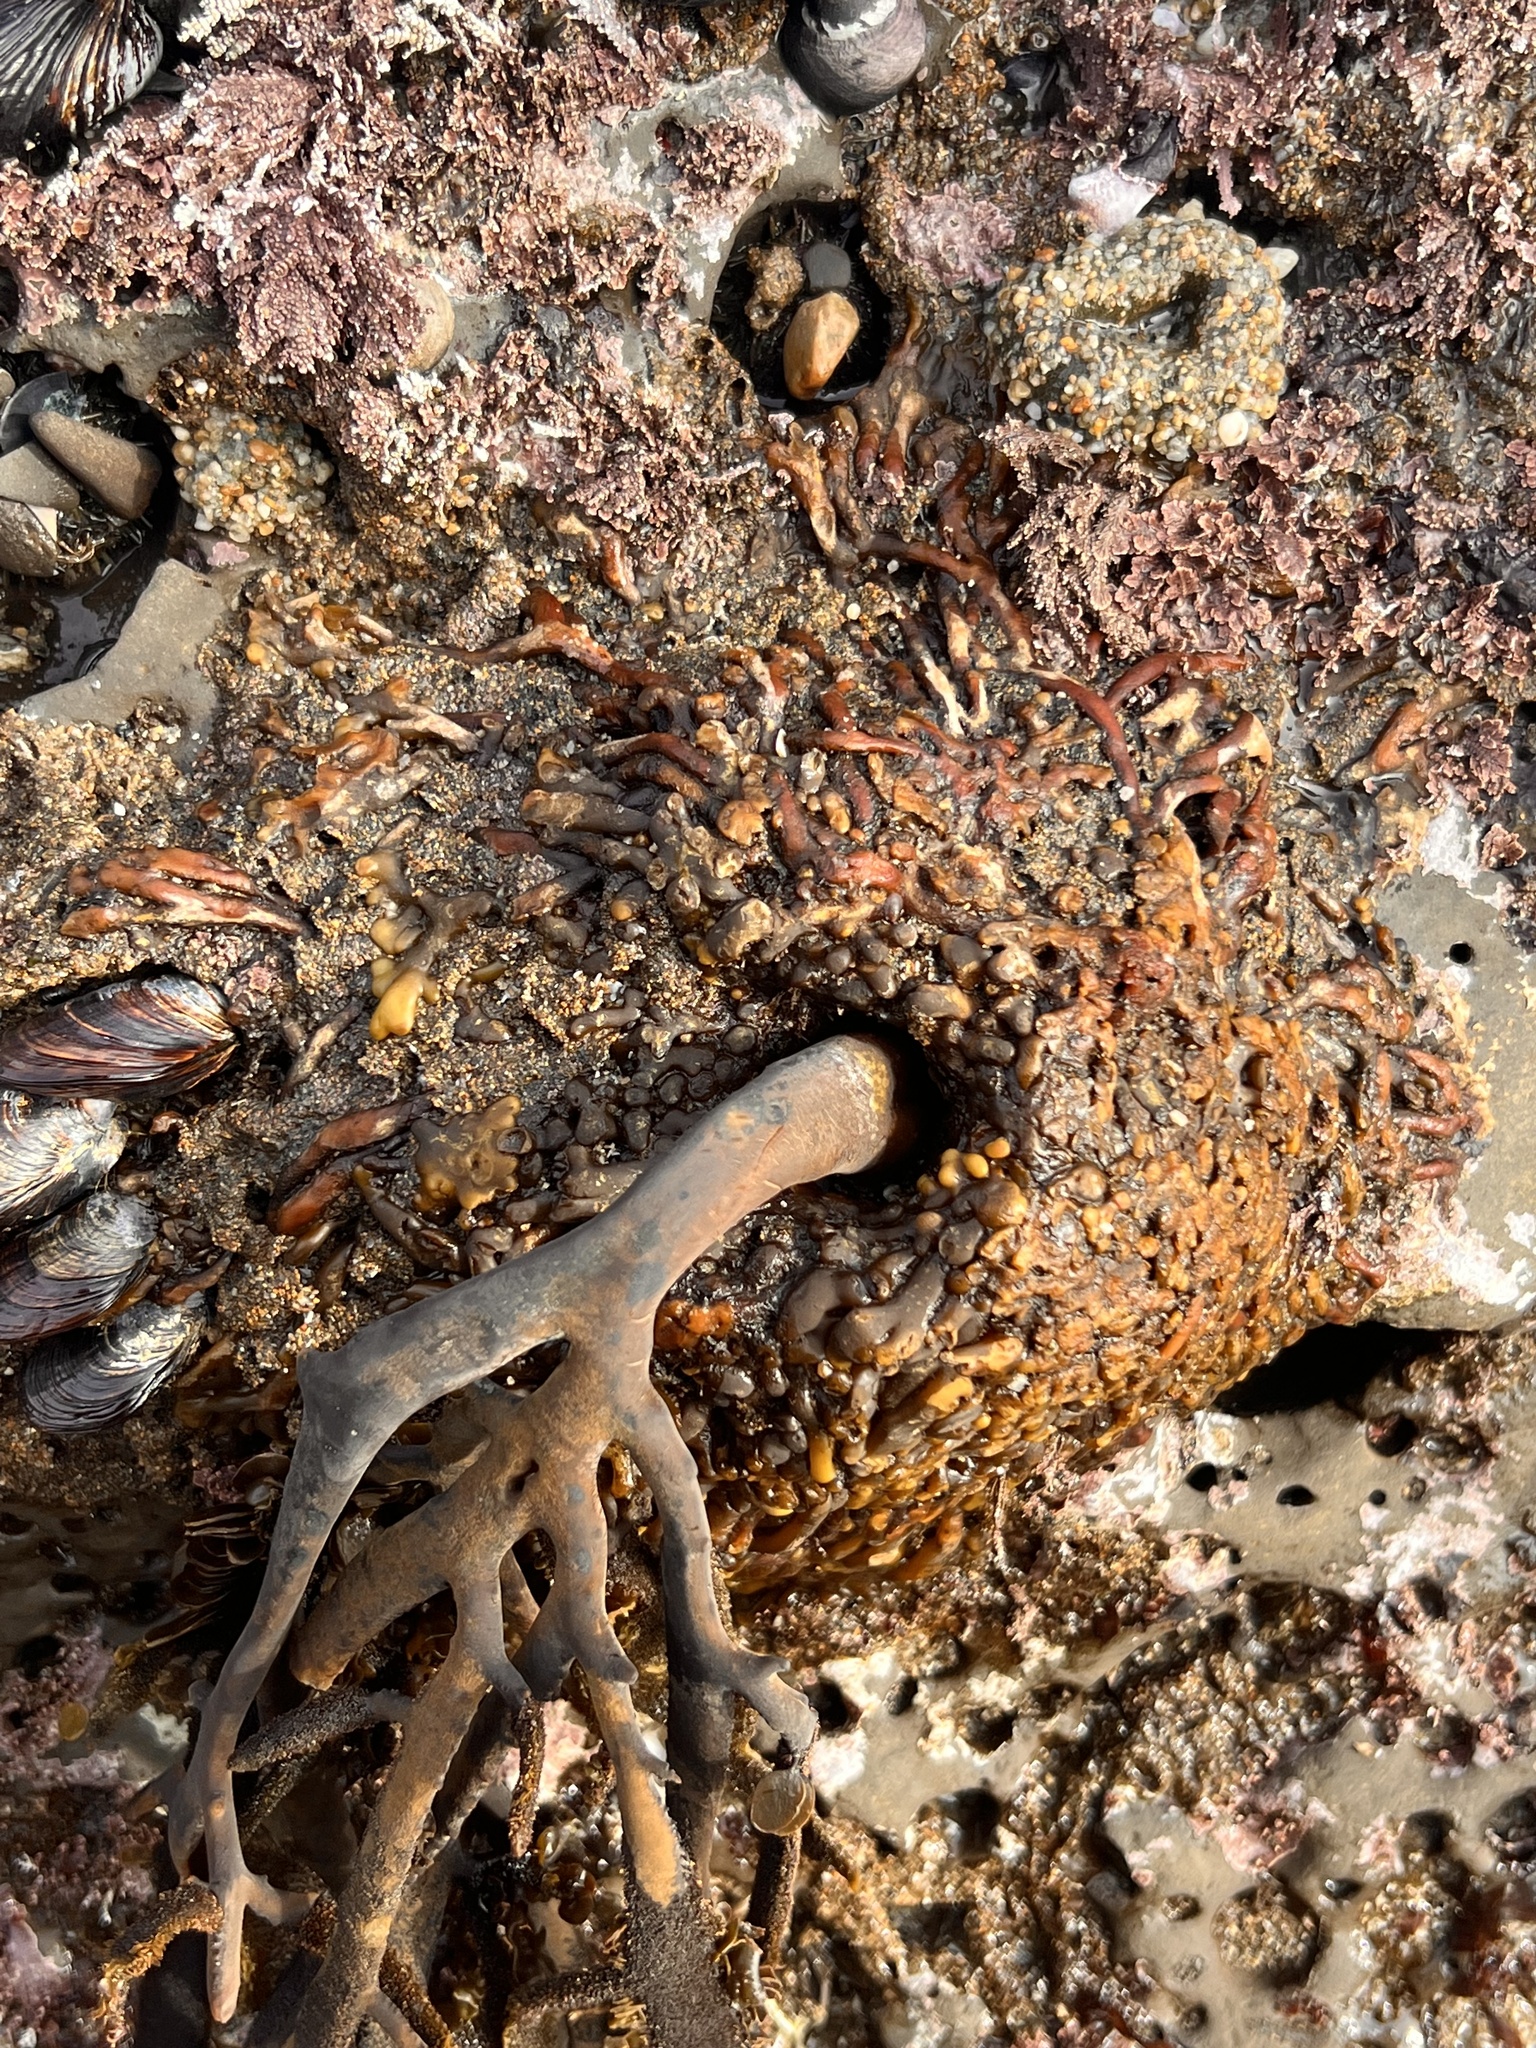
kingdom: Chromista
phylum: Ochrophyta
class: Phaeophyceae
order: Laminariales
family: Lessoniaceae
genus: Egregia
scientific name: Egregia menziesii
